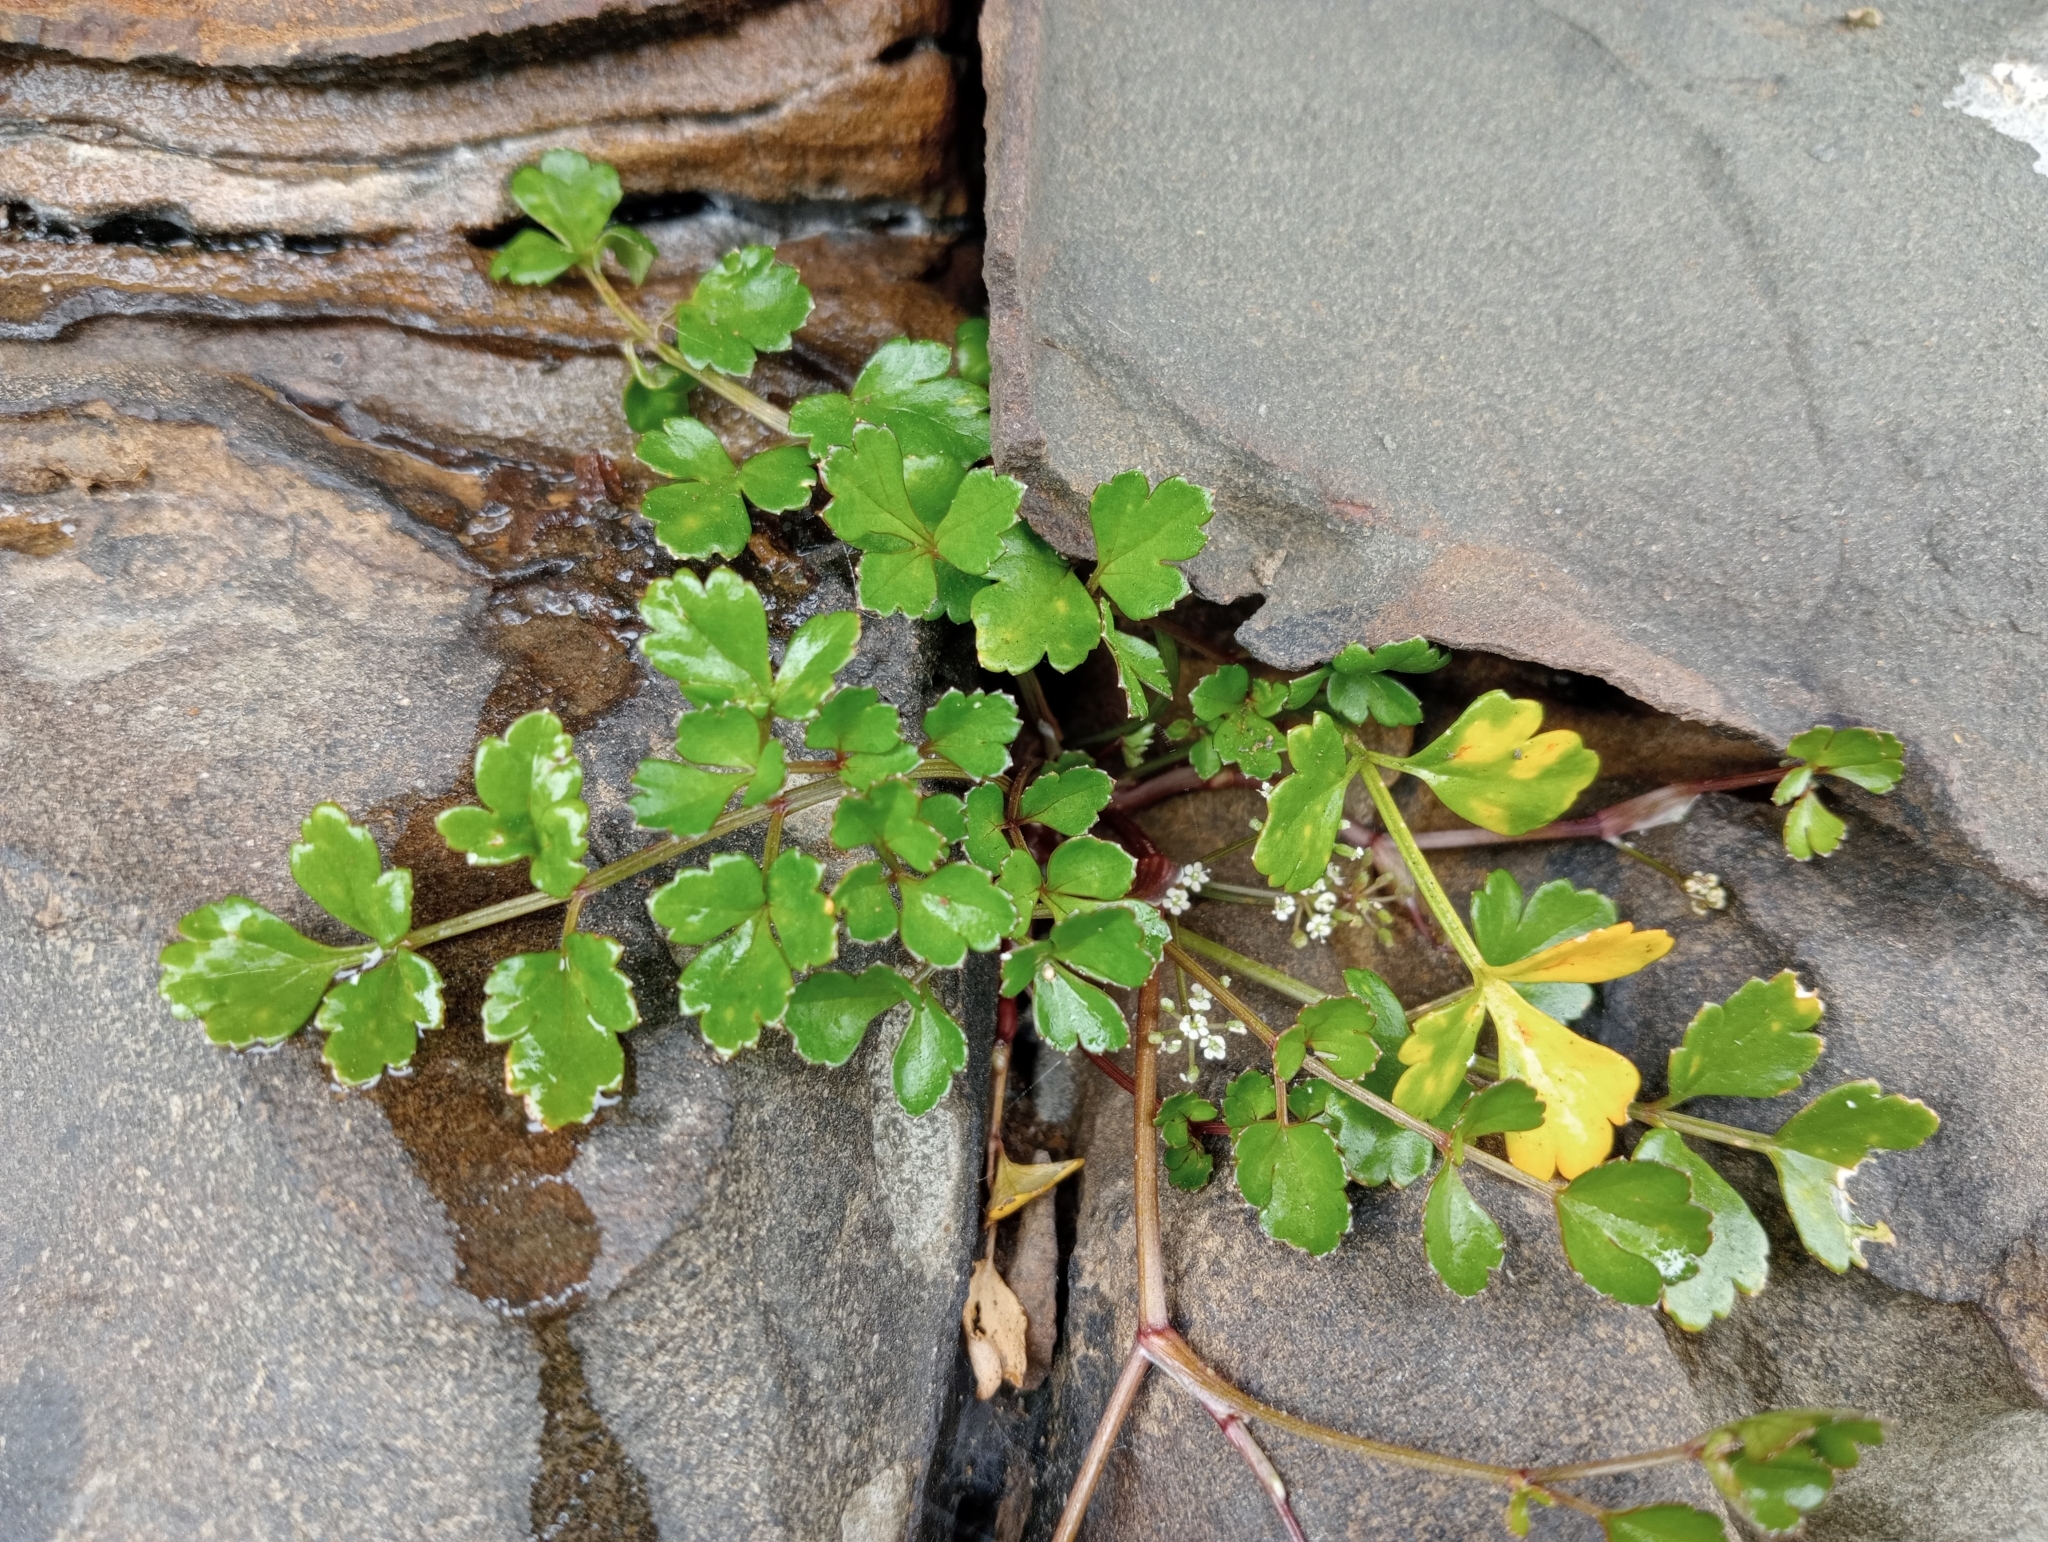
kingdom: Plantae
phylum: Tracheophyta
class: Magnoliopsida
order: Apiales
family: Apiaceae
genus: Apium
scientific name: Apium prostratum
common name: Prostrate marshwort
